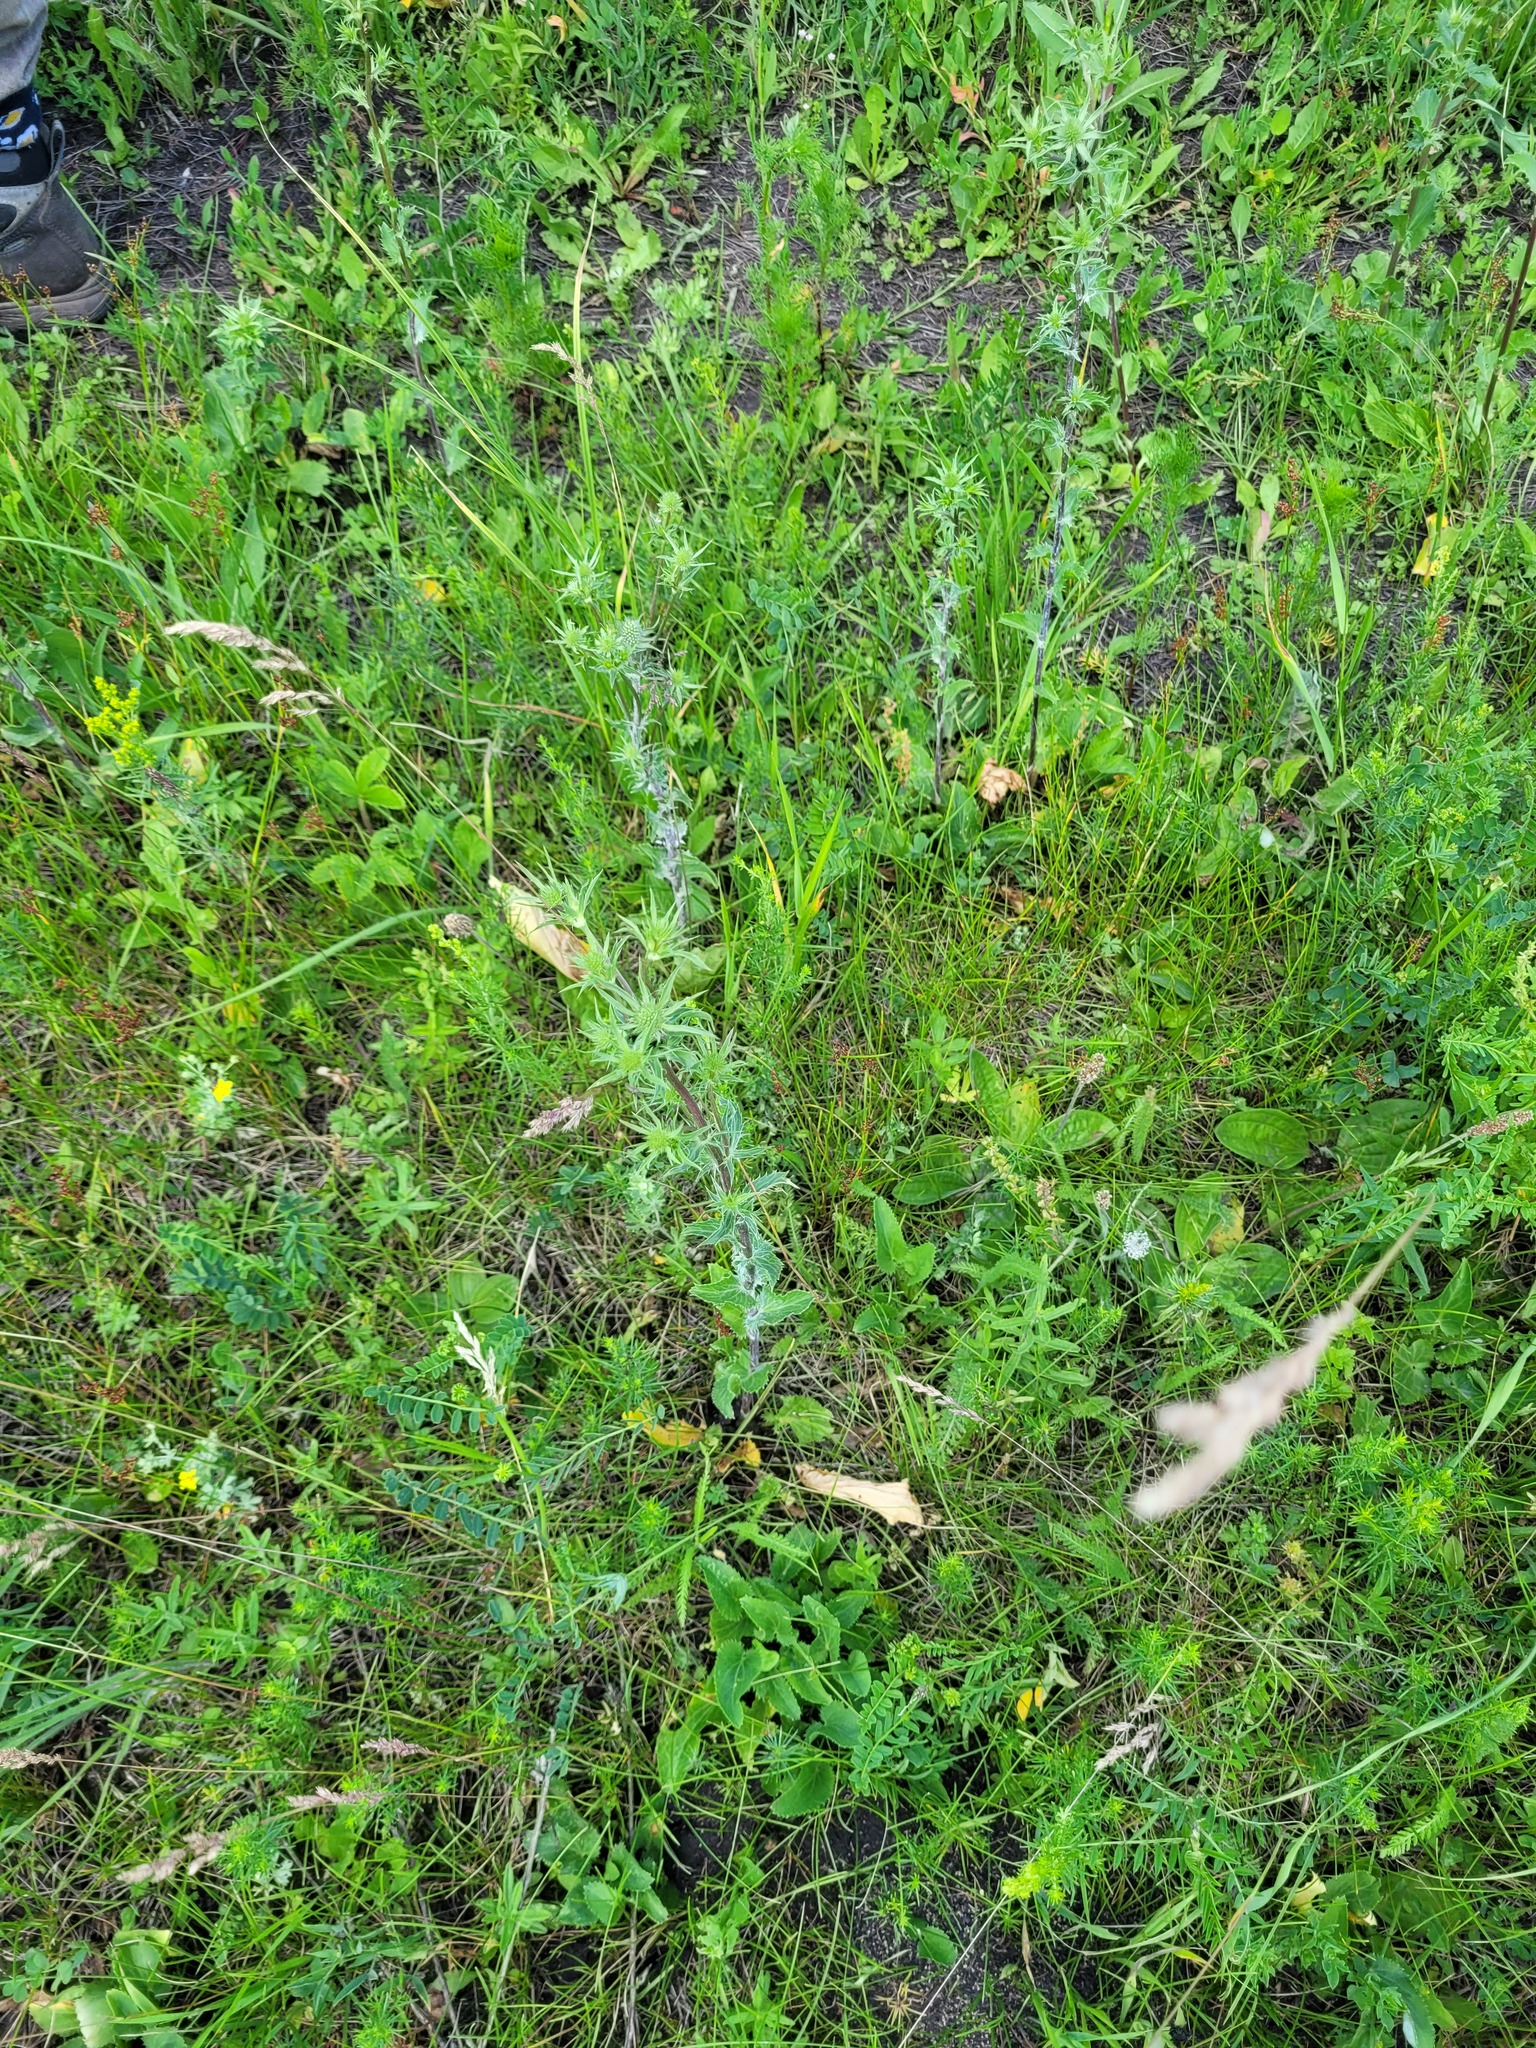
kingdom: Plantae
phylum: Tracheophyta
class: Magnoliopsida
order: Apiales
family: Apiaceae
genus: Eryngium
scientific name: Eryngium planum
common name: Blue eryngo
